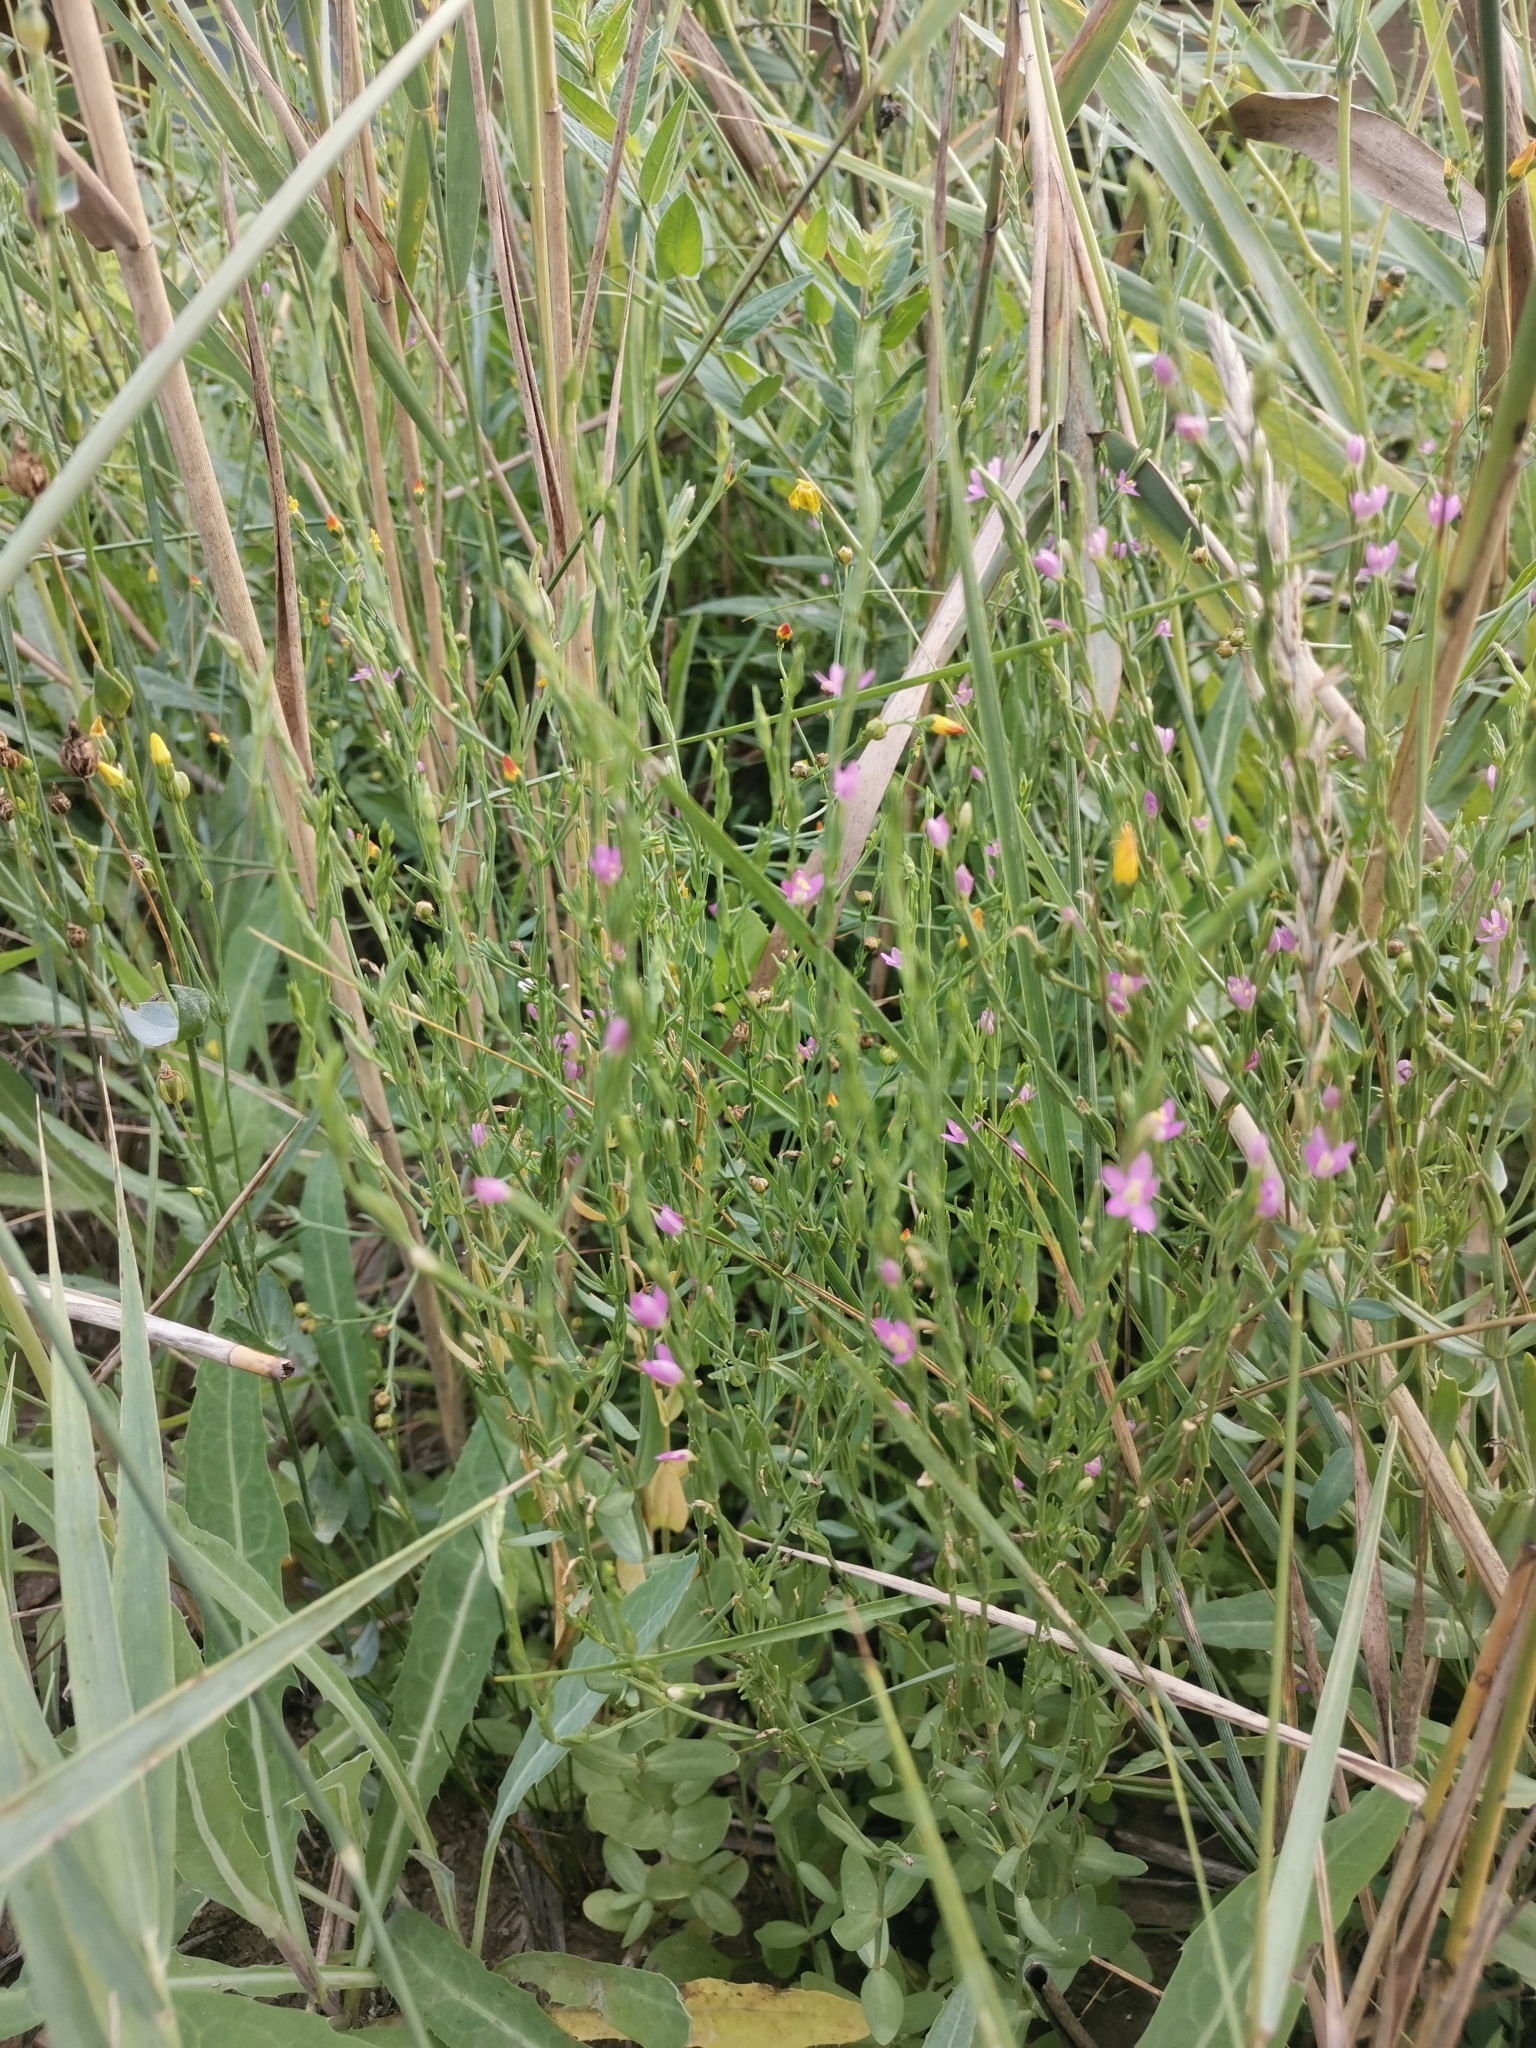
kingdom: Plantae
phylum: Tracheophyta
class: Magnoliopsida
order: Gentianales
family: Gentianaceae
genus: Schenkia
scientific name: Schenkia spicata
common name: Spiked centaury
